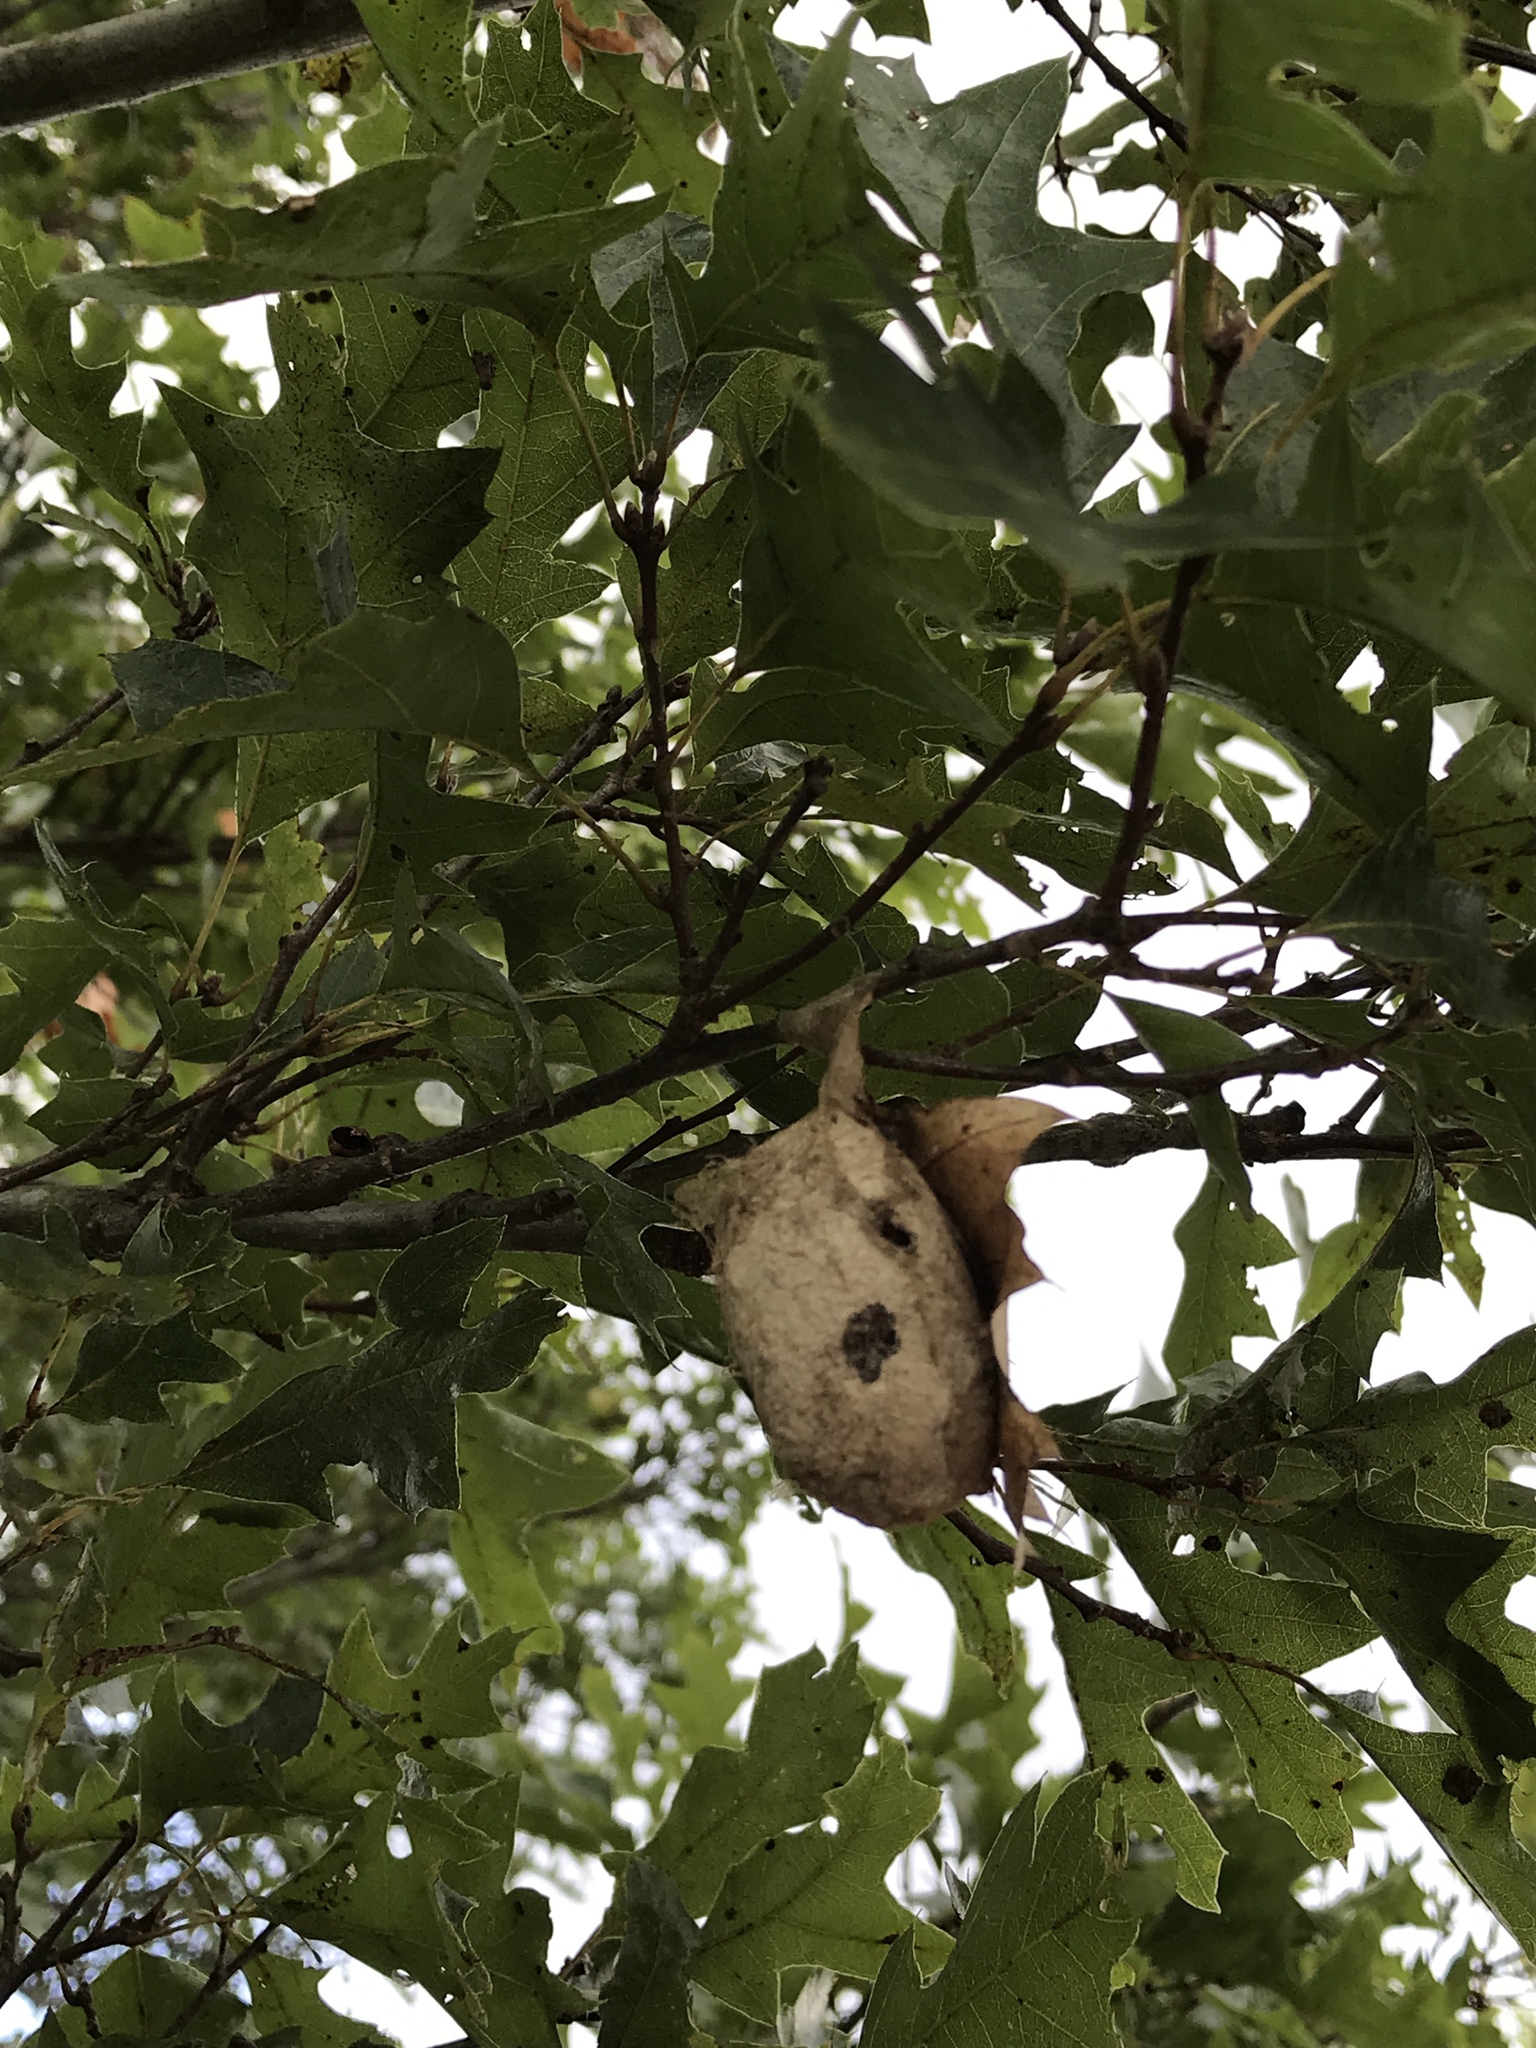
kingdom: Animalia
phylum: Arthropoda
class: Insecta
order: Lepidoptera
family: Saturniidae
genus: Antheraea
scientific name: Antheraea polyphemus
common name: Polyphemus moth
